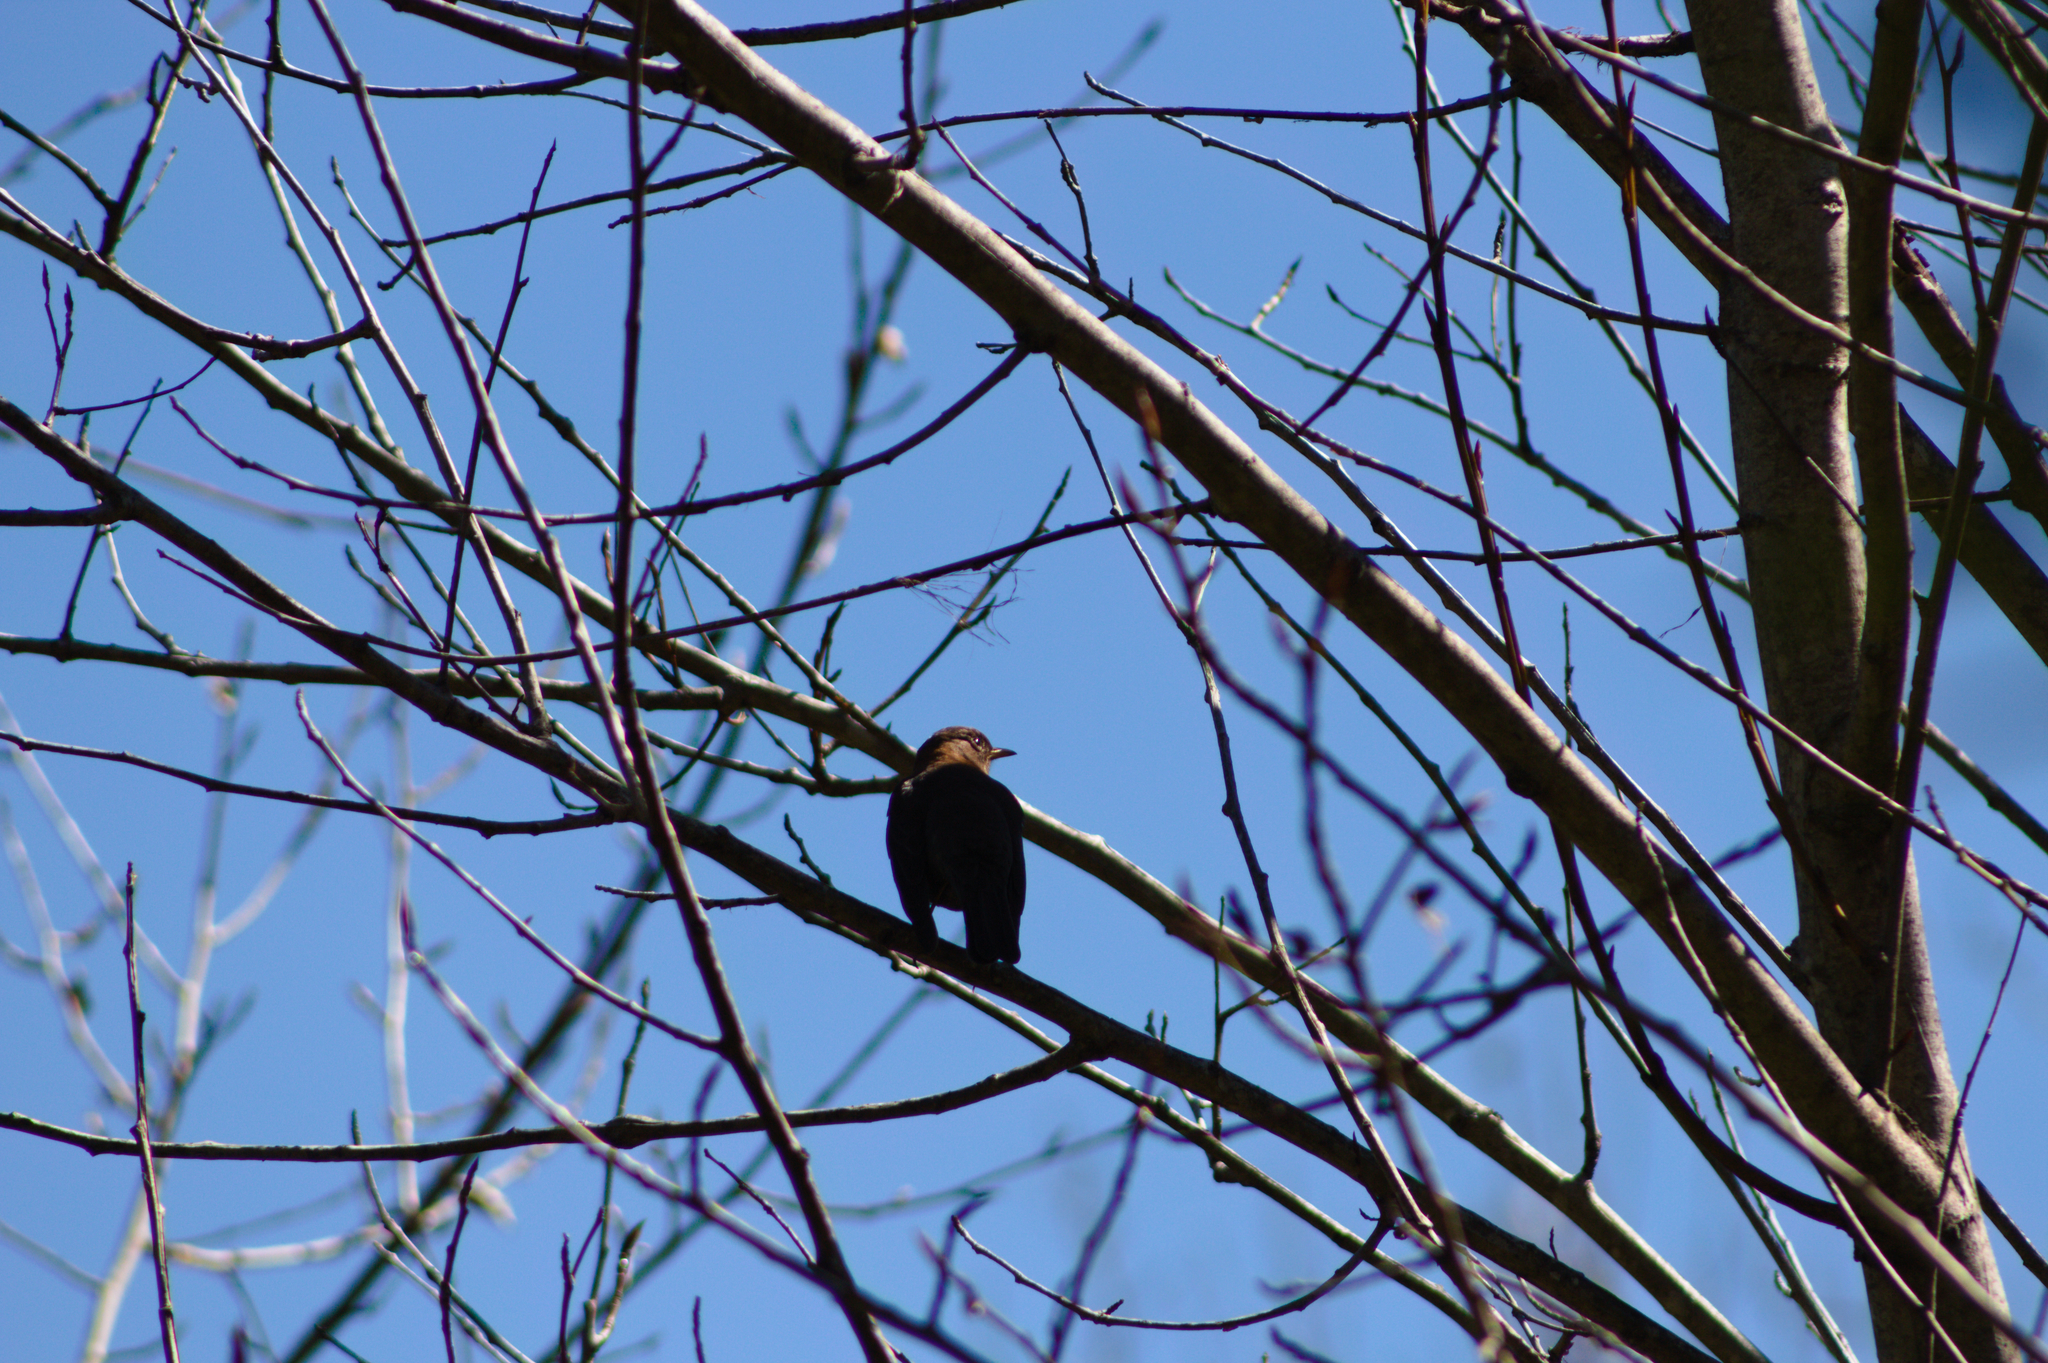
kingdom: Animalia
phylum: Chordata
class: Aves
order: Passeriformes
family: Turdidae
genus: Turdus
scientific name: Turdus rufitorques
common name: Rufous-collared thrush
